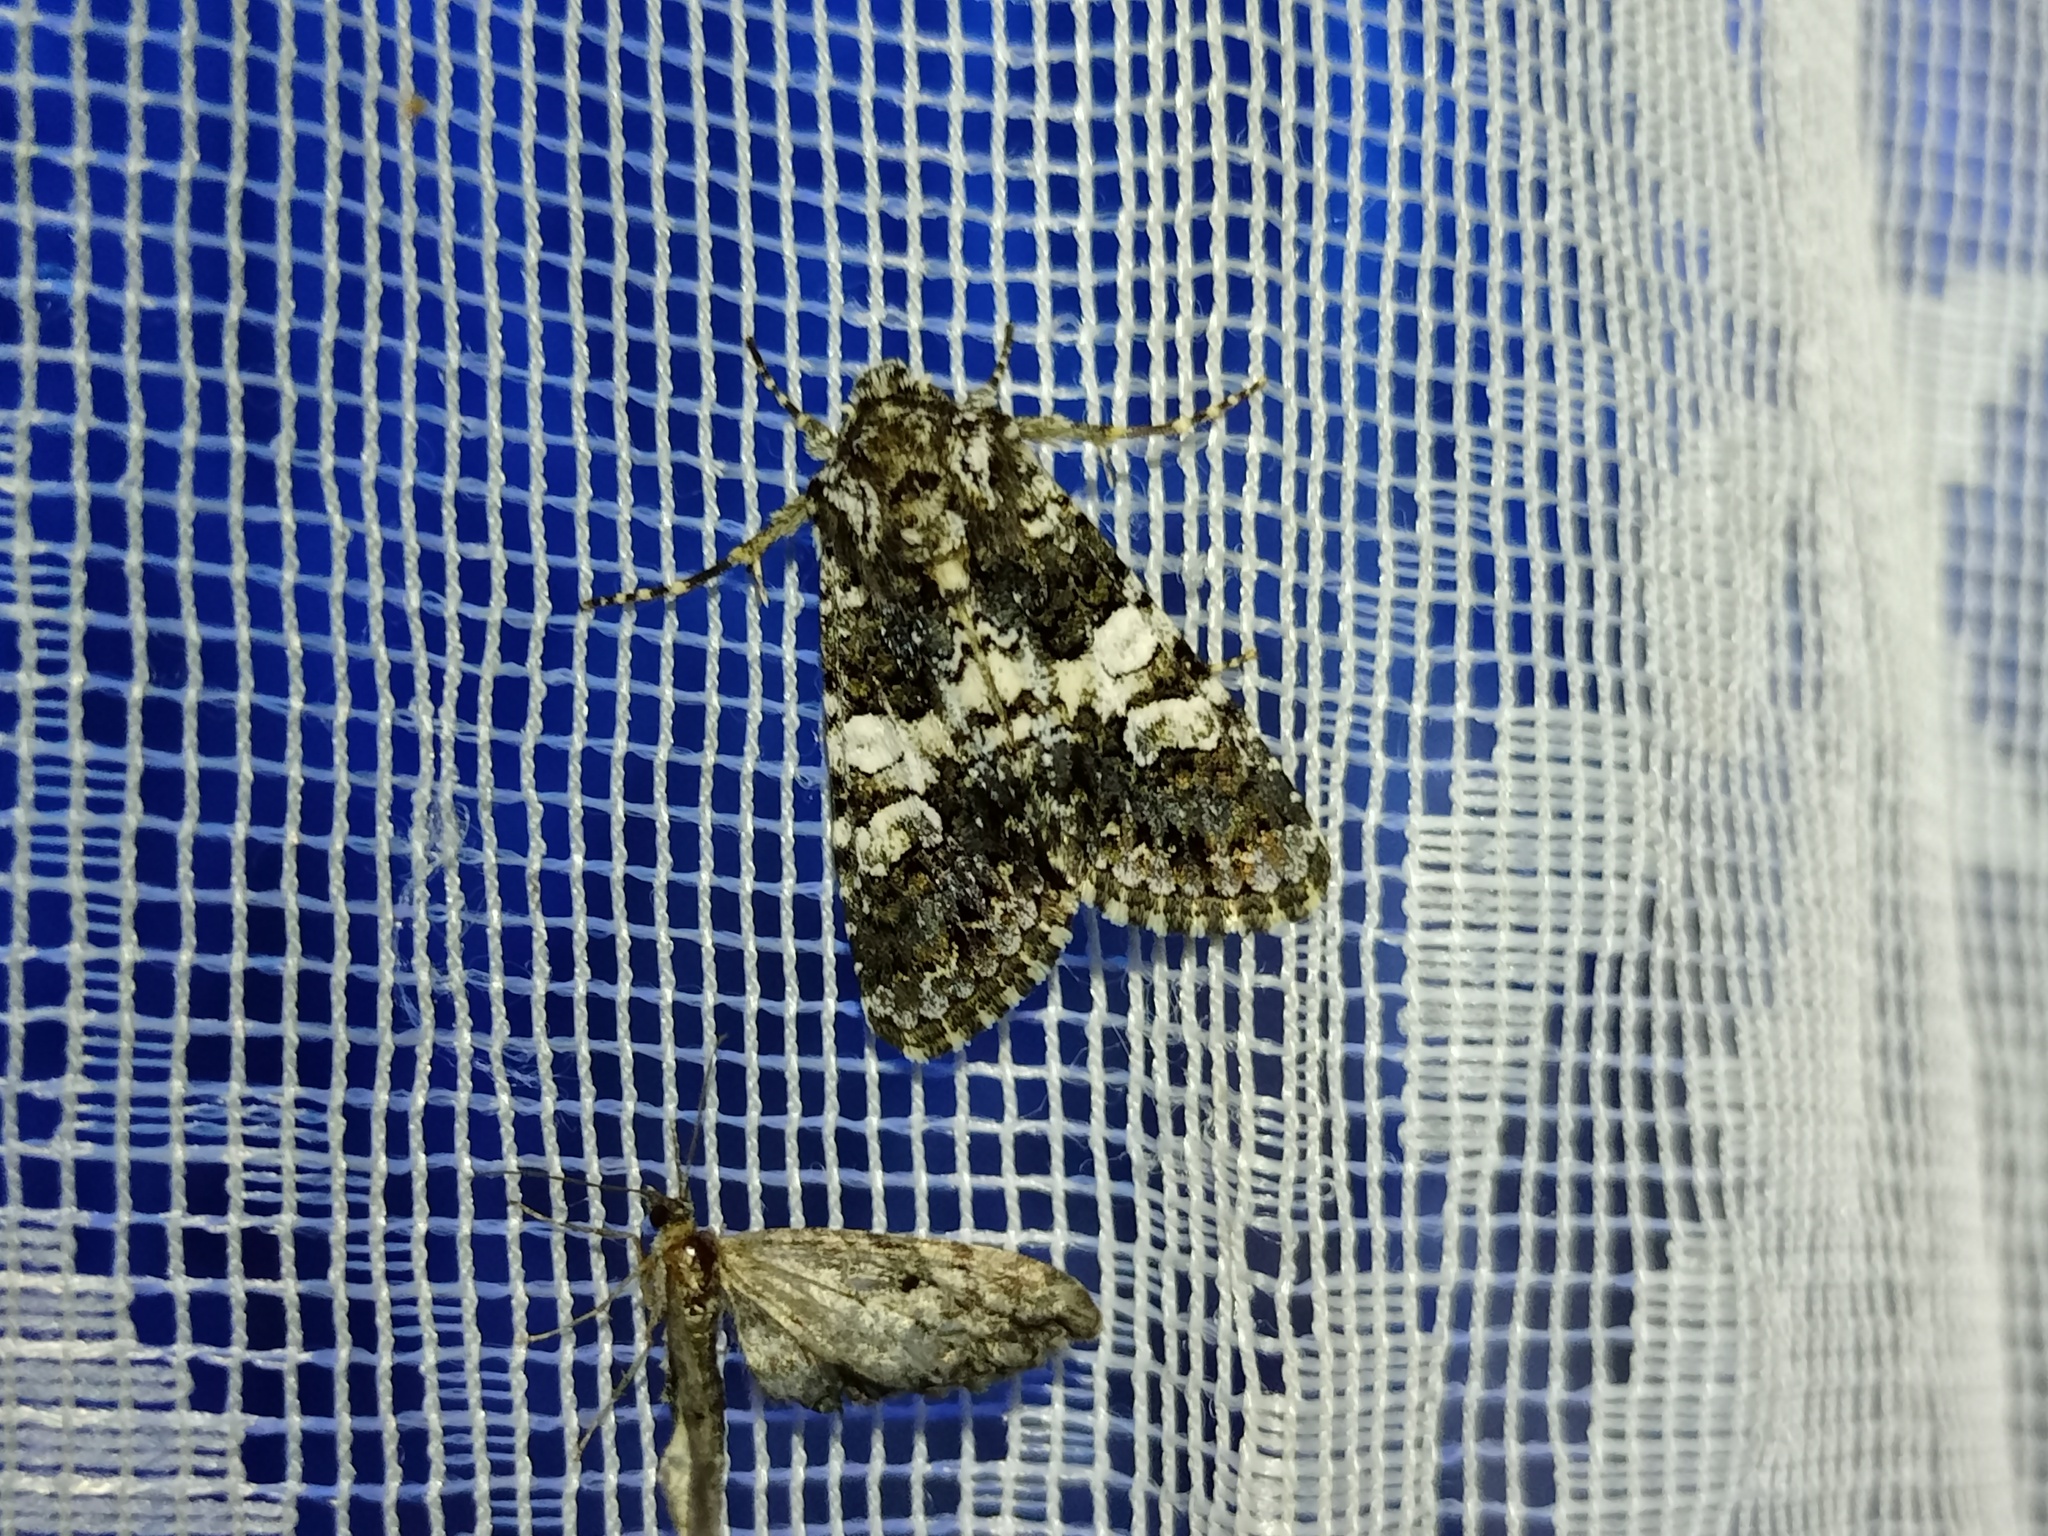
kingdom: Animalia
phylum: Arthropoda
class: Insecta
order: Lepidoptera
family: Noctuidae
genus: Hadena
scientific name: Hadena compta
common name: Varied coronet
